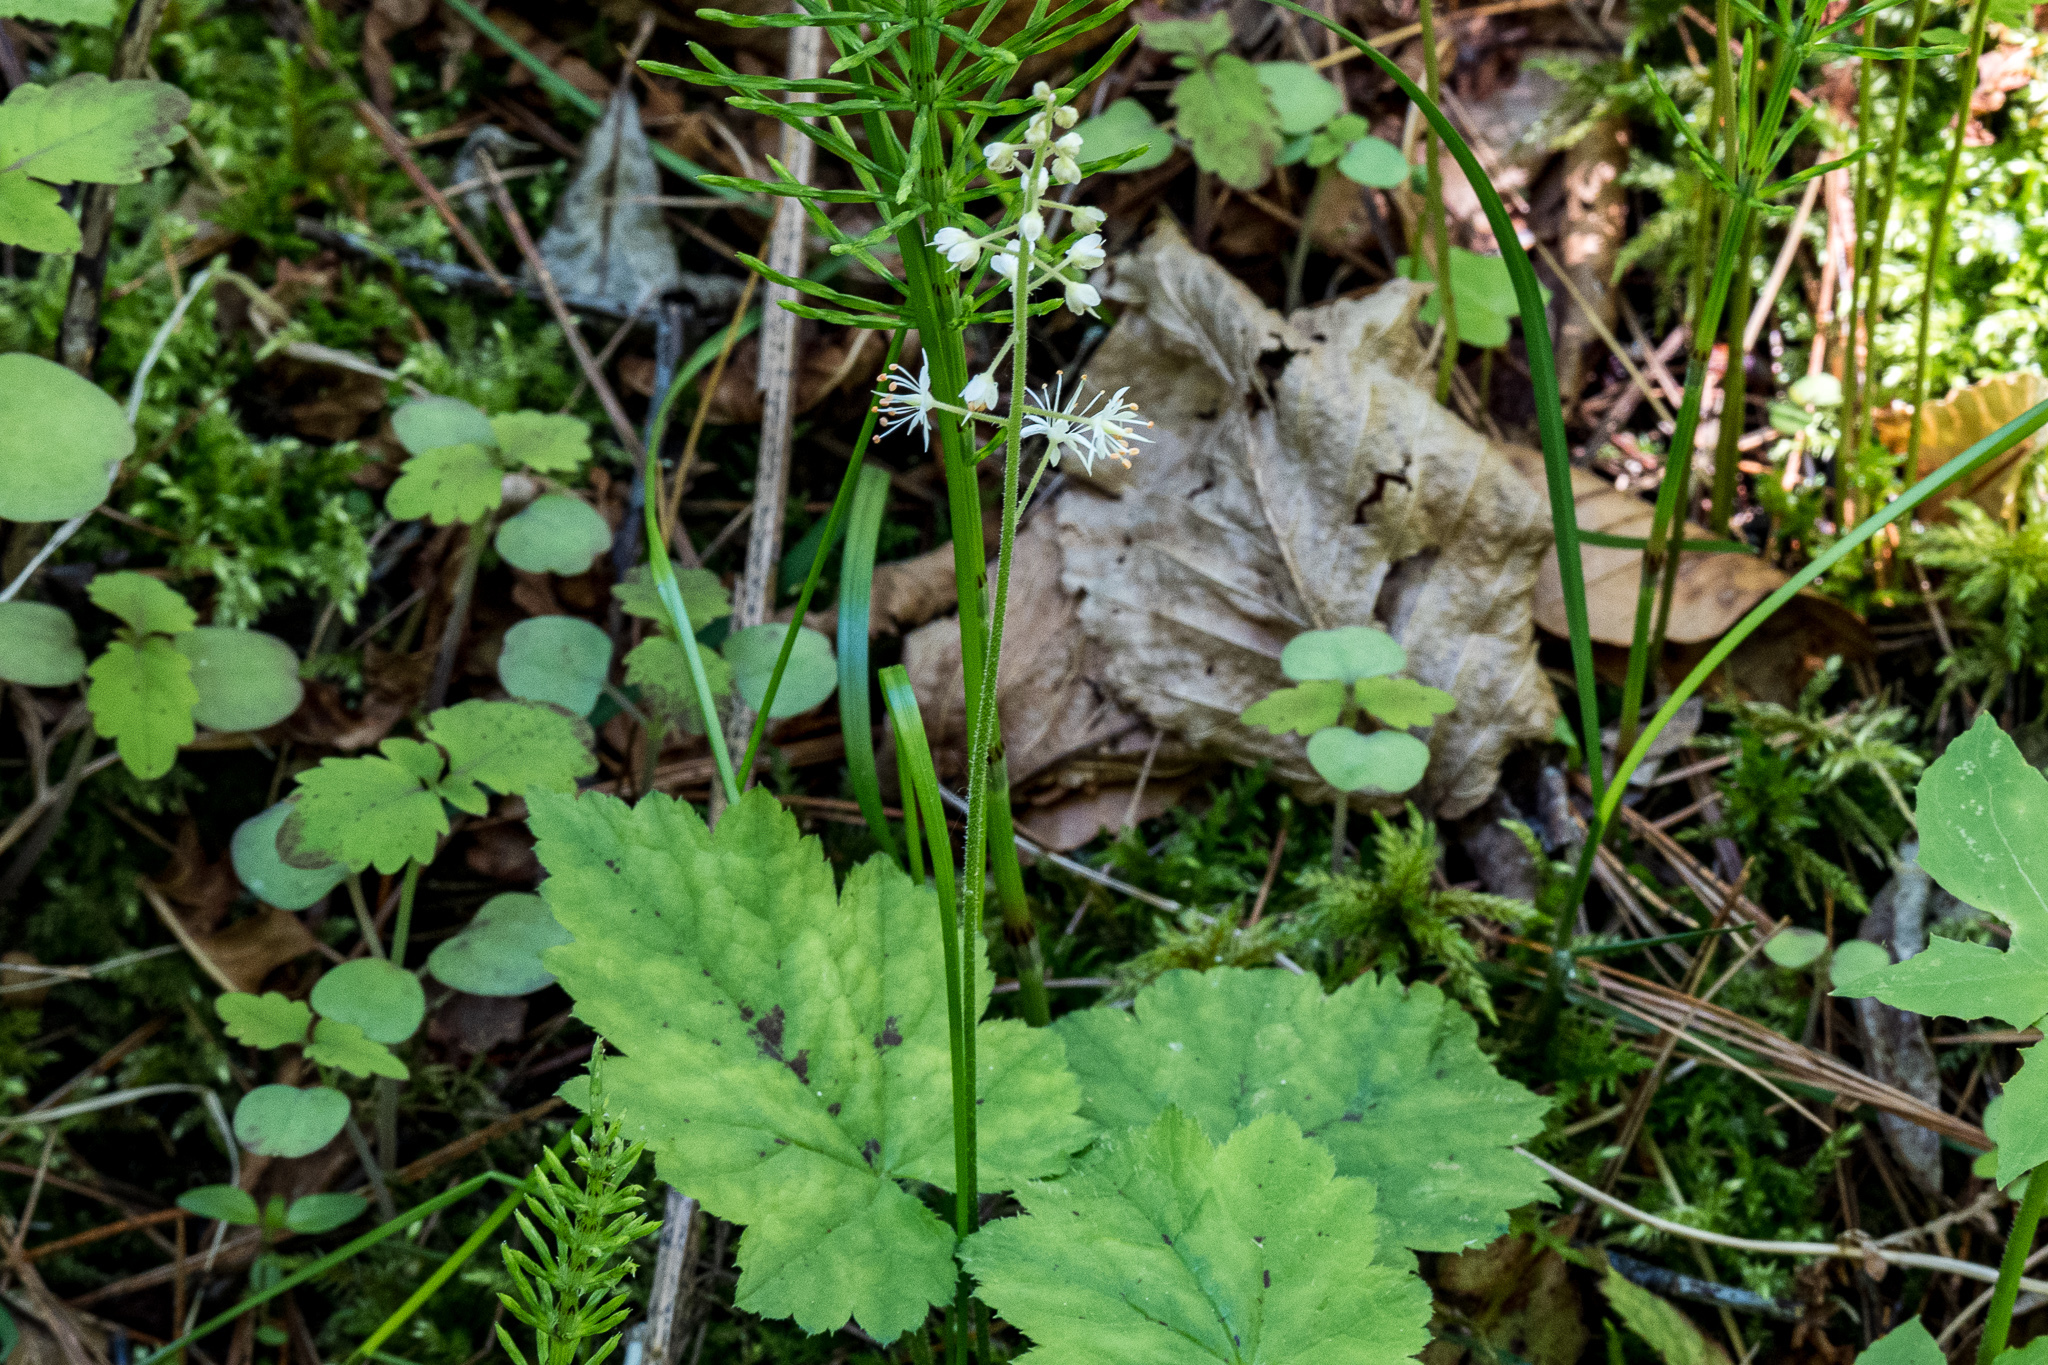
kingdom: Plantae
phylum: Tracheophyta
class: Magnoliopsida
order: Saxifragales
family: Saxifragaceae
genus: Tiarella
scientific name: Tiarella stolonifera
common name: Stoloniferous foamflower
